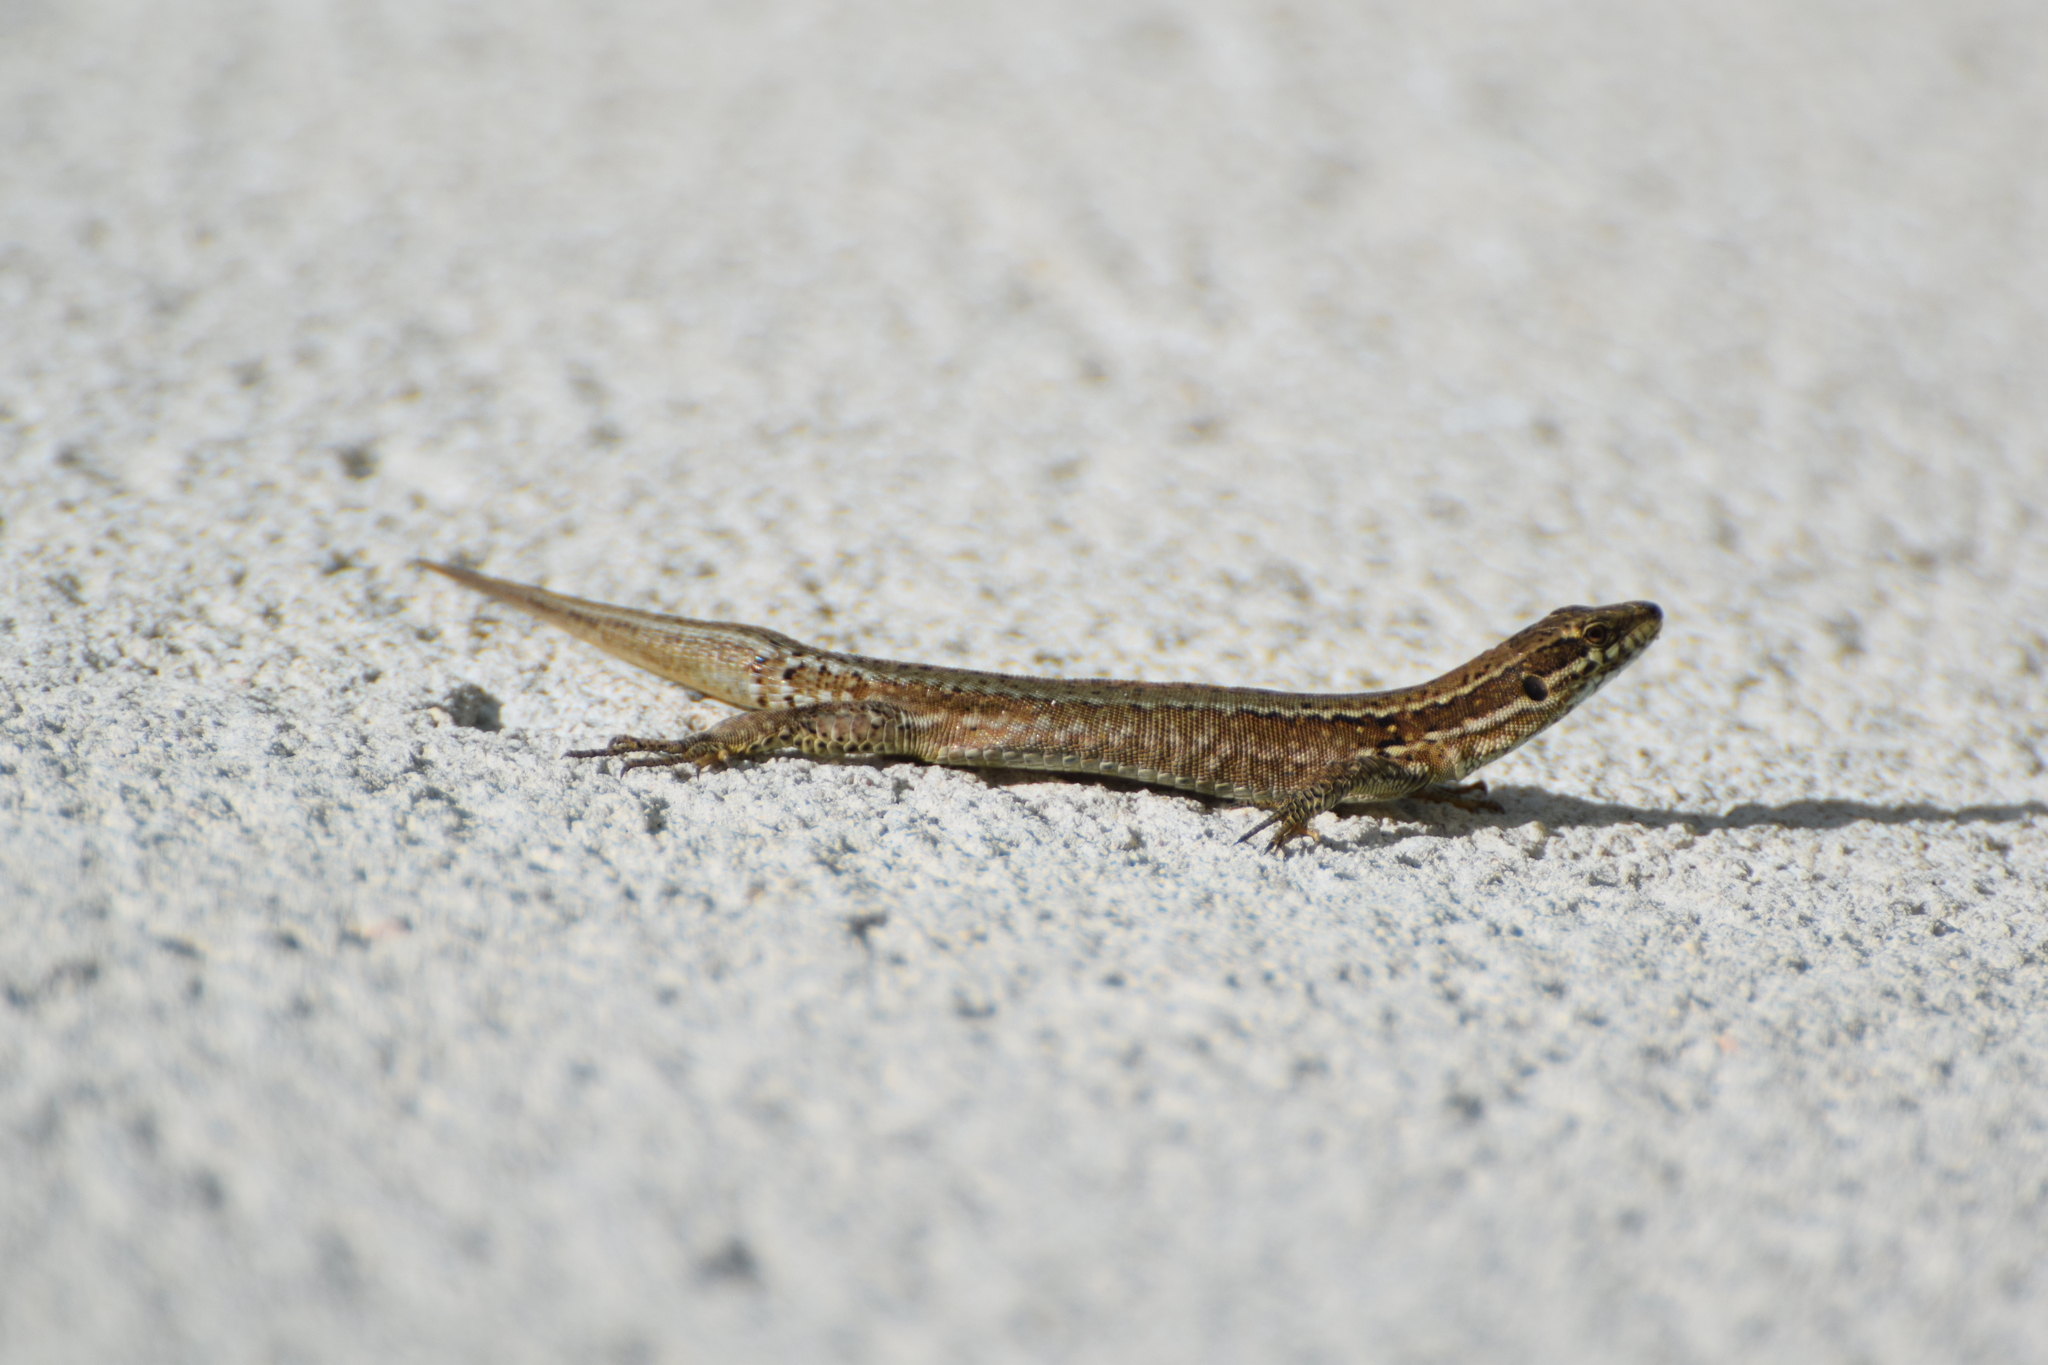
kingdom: Animalia
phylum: Chordata
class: Squamata
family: Lacertidae
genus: Podarcis
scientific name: Podarcis muralis
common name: Common wall lizard
